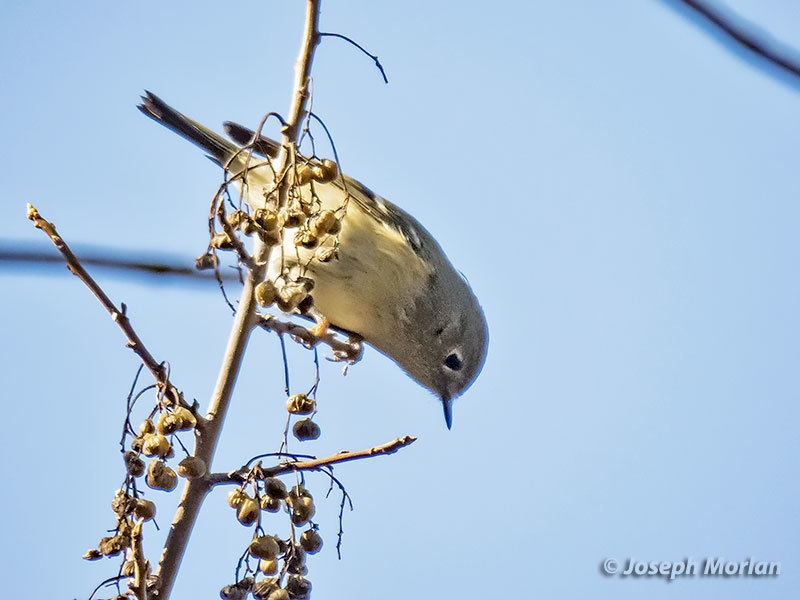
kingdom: Animalia
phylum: Chordata
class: Aves
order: Passeriformes
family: Regulidae
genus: Regulus
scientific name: Regulus calendula
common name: Ruby-crowned kinglet
